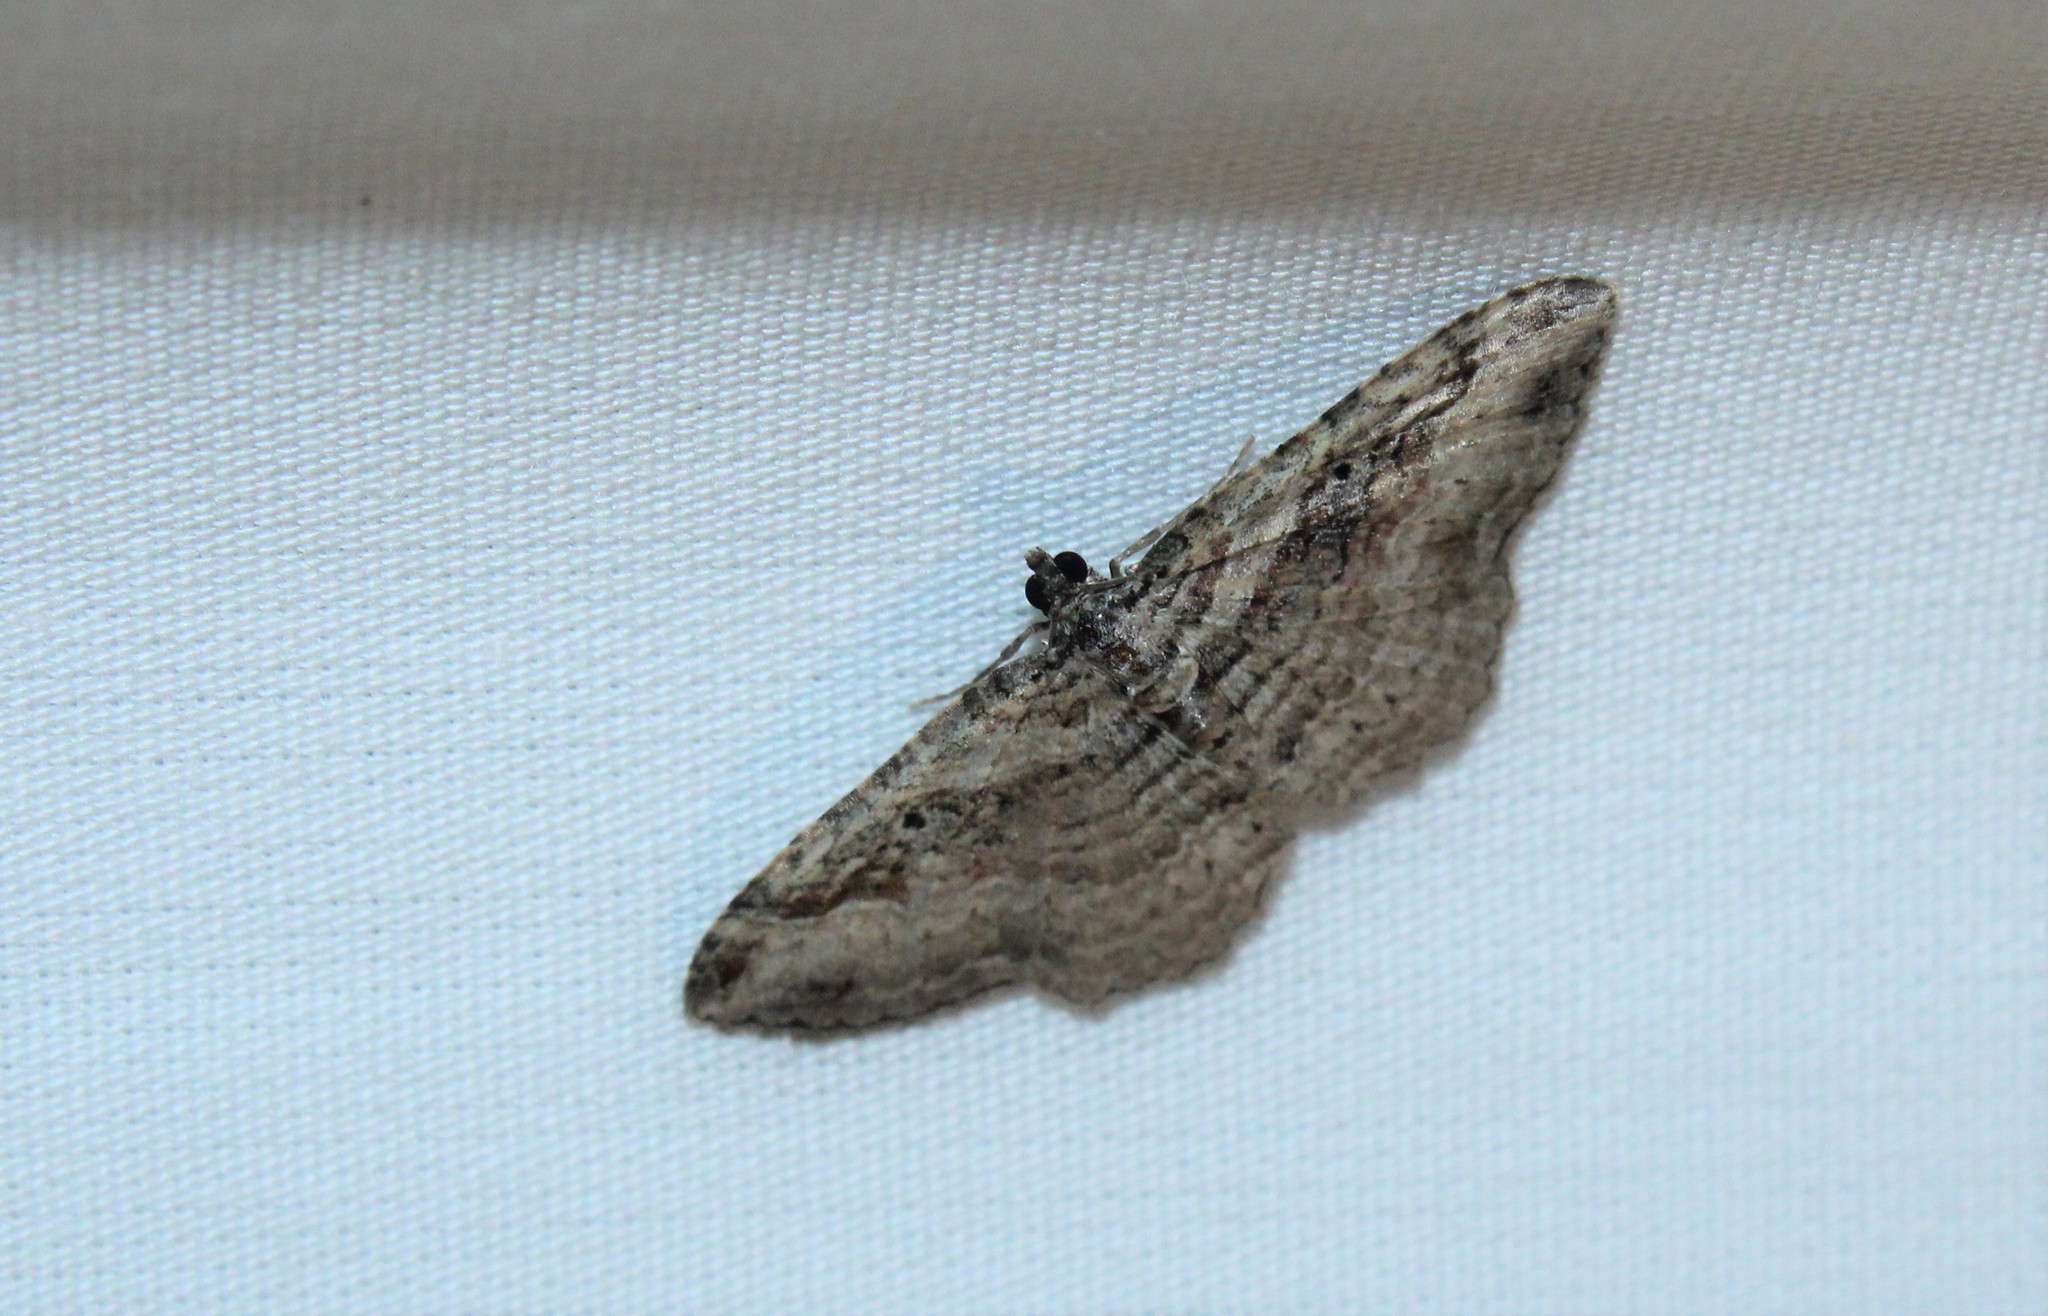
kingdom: Animalia
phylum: Arthropoda
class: Insecta
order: Lepidoptera
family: Geometridae
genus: Costaconvexa
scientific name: Costaconvexa centrostrigaria
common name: Bent-line carpet
